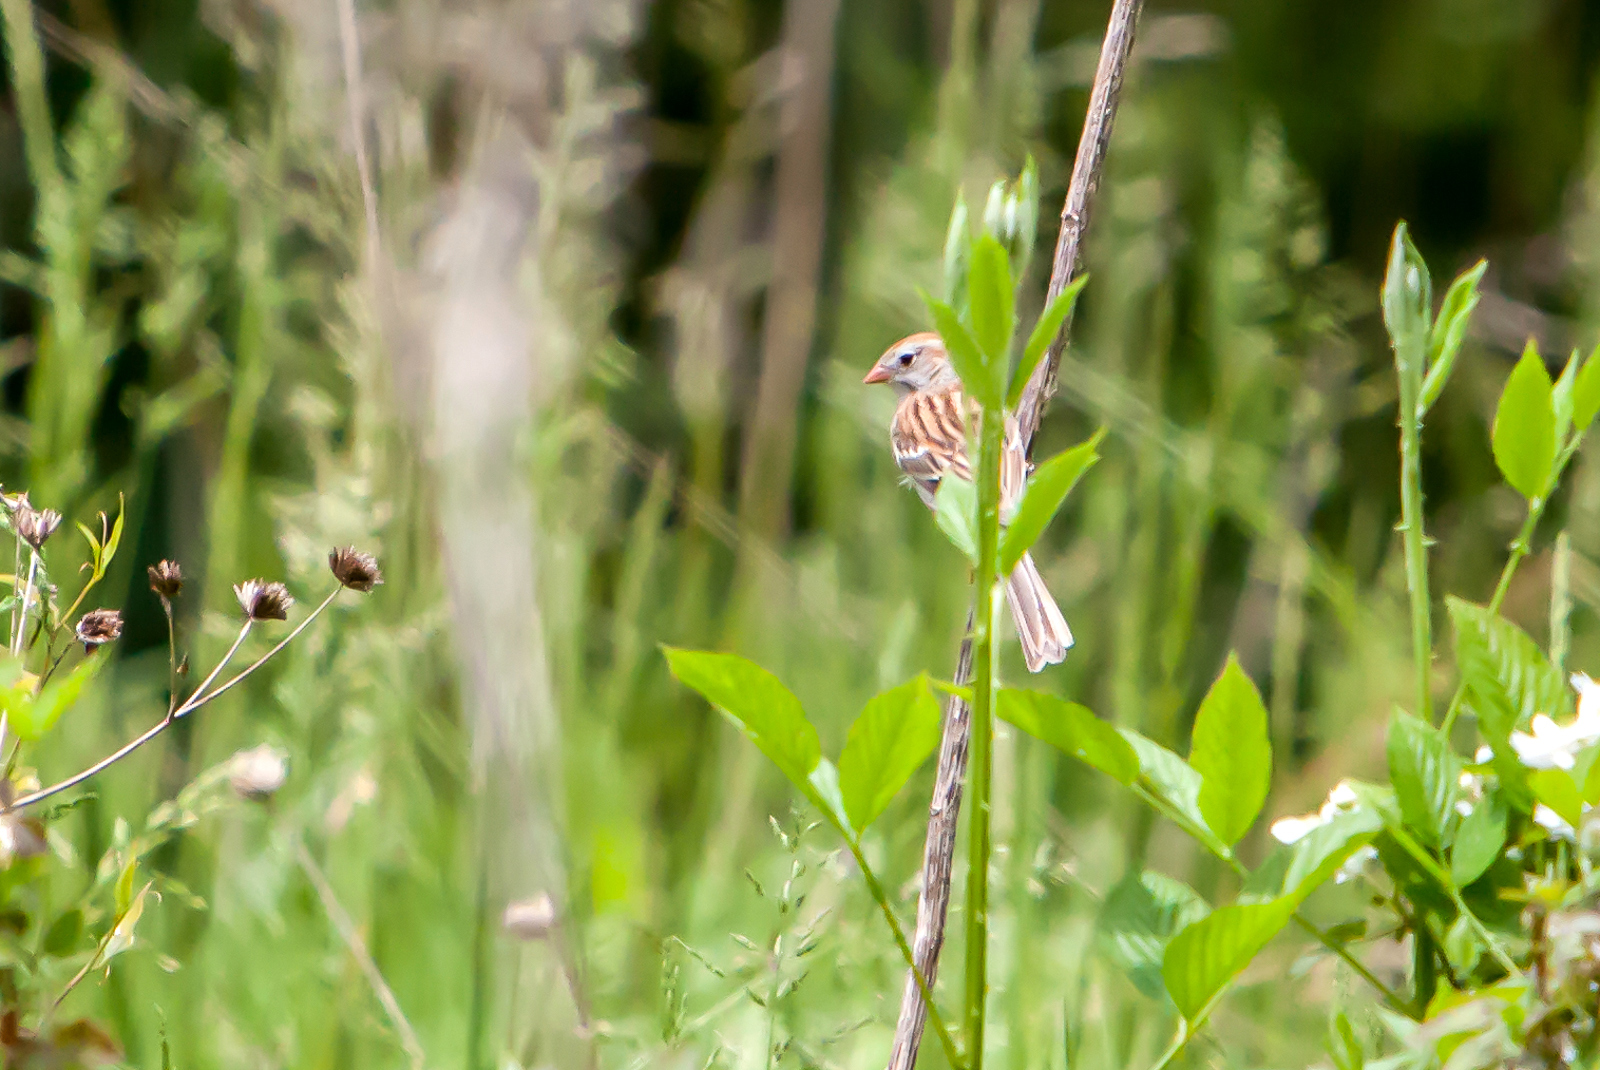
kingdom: Animalia
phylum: Chordata
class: Aves
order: Passeriformes
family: Passerellidae
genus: Spizella
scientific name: Spizella pusilla
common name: Field sparrow
